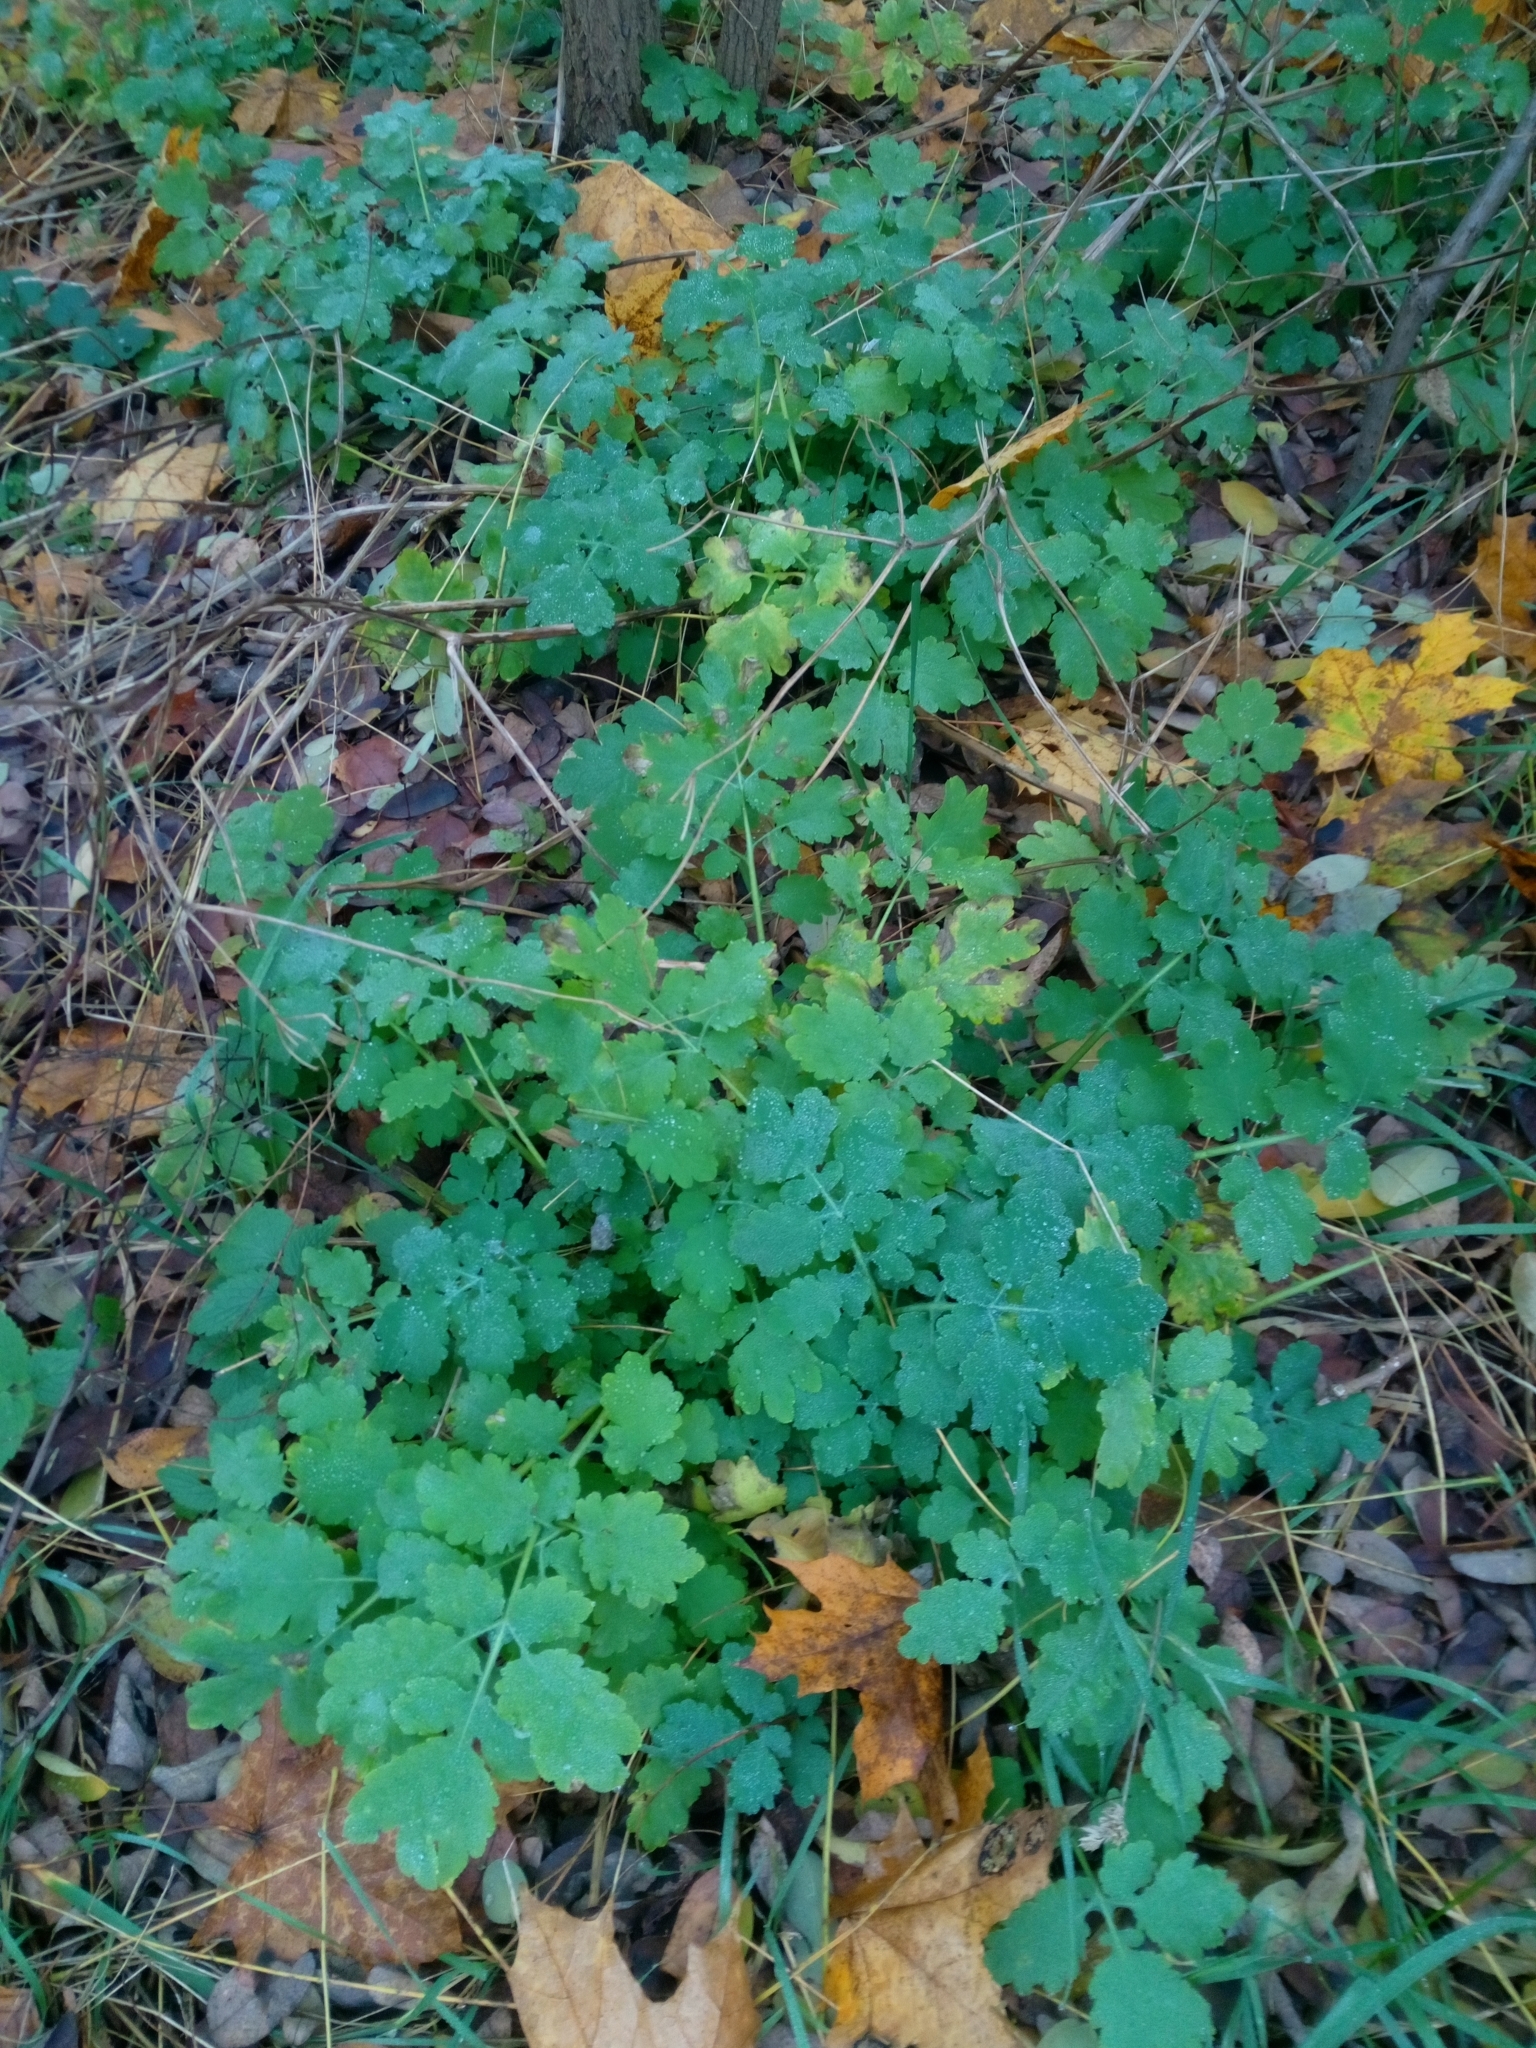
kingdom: Plantae
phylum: Tracheophyta
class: Magnoliopsida
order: Ranunculales
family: Papaveraceae
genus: Chelidonium
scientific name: Chelidonium majus
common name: Greater celandine
